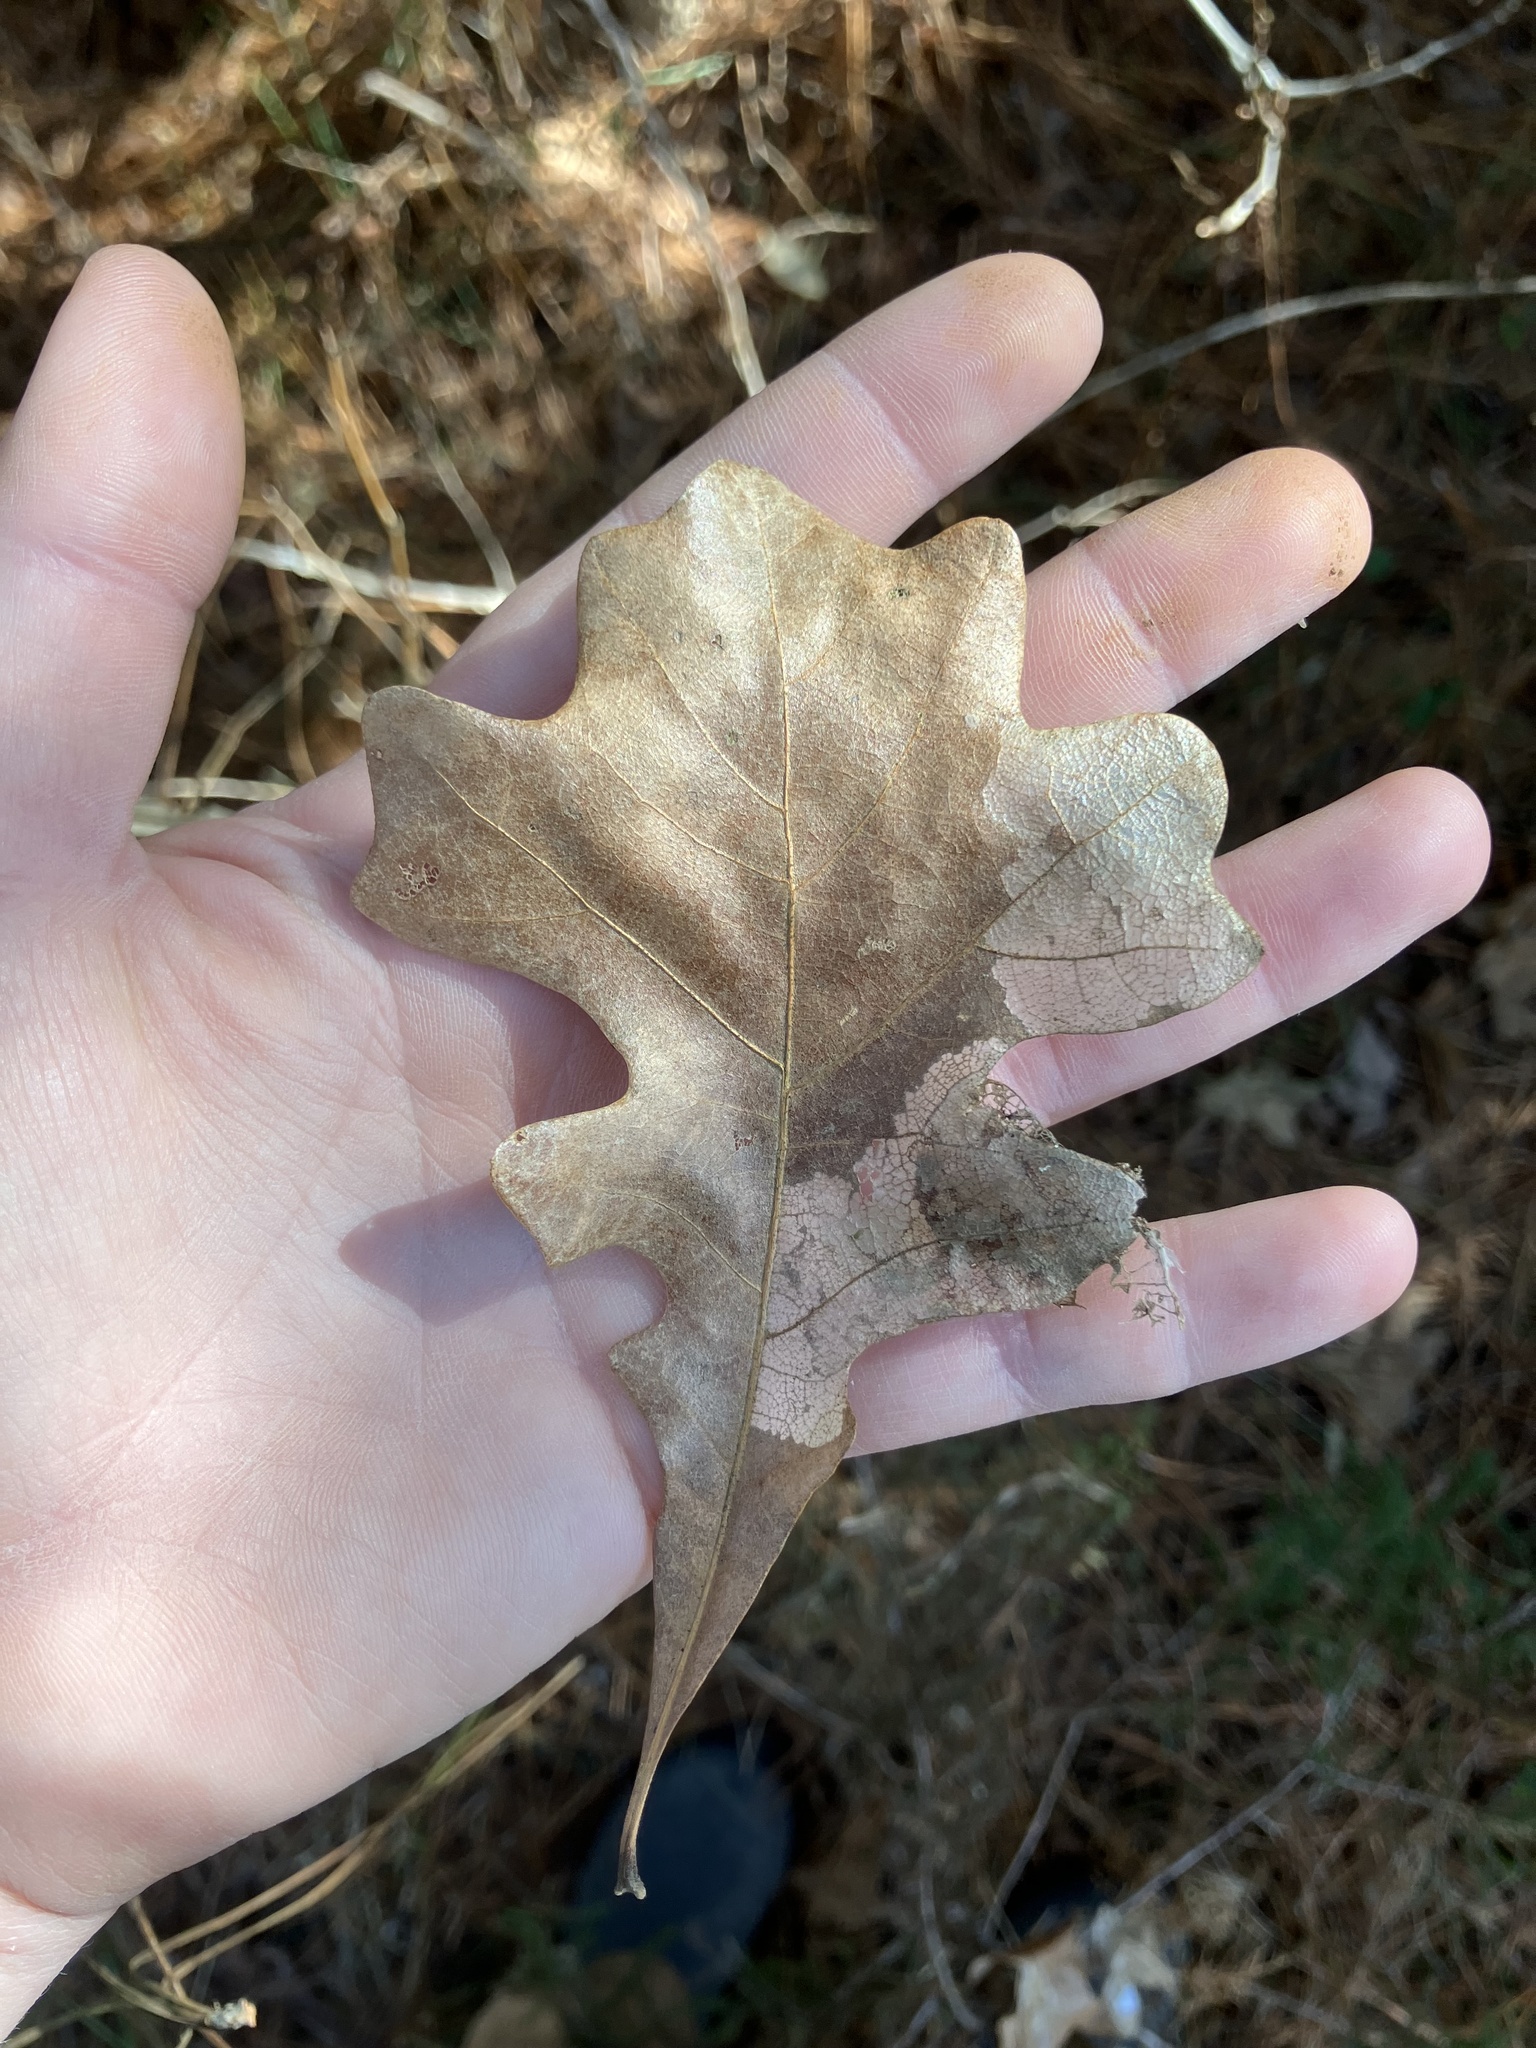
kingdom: Plantae
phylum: Tracheophyta
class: Magnoliopsida
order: Fagales
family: Fagaceae
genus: Quercus
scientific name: Quercus stellata
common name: Post oak
